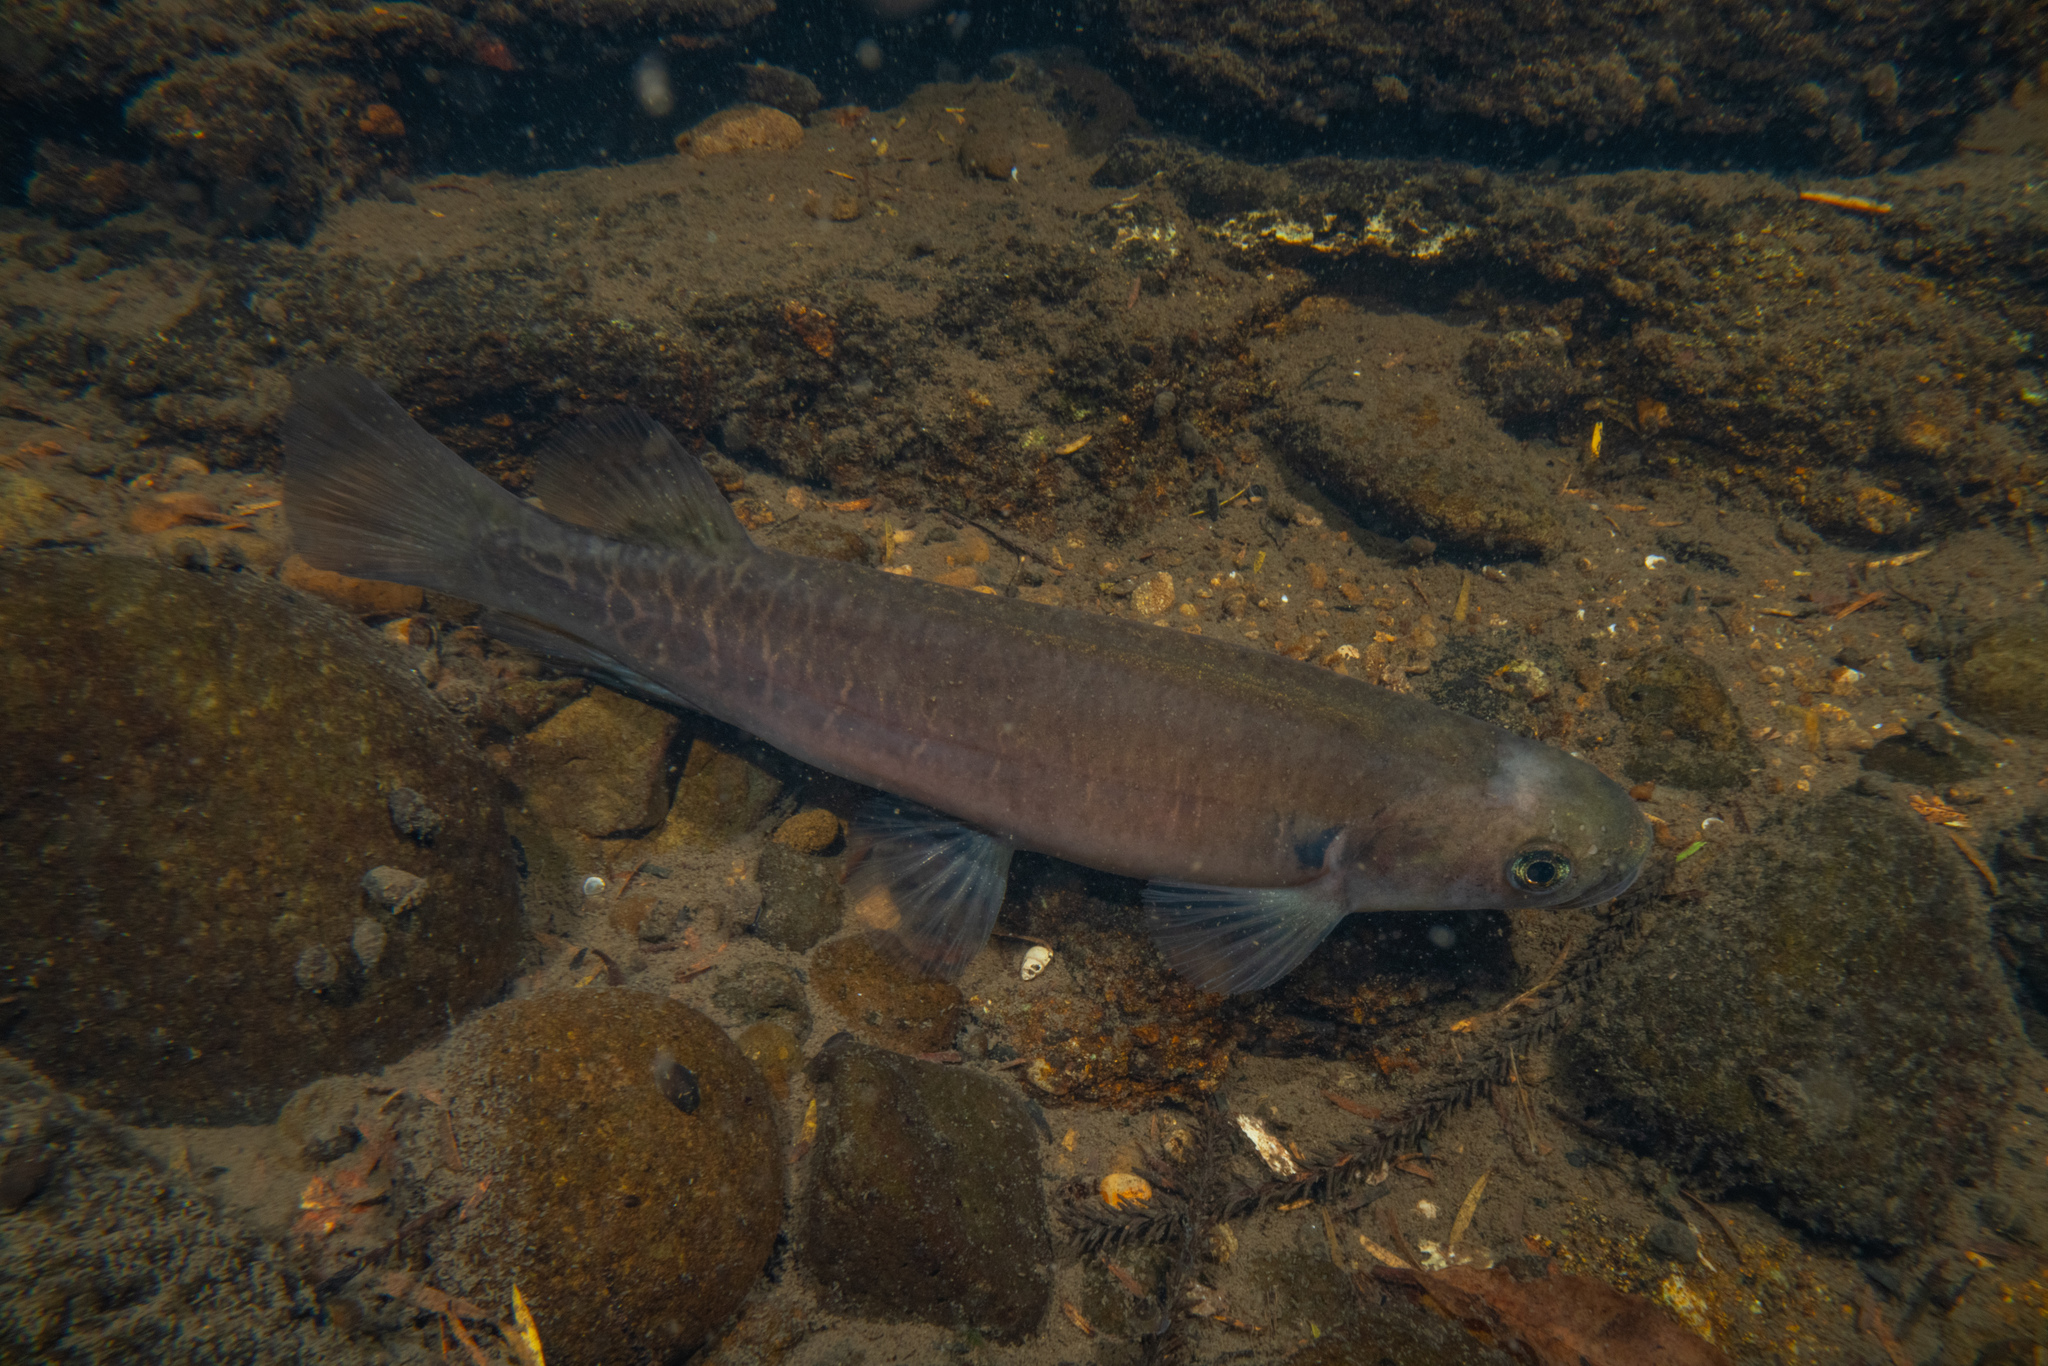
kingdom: Animalia
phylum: Chordata
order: Osmeriformes
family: Galaxiidae
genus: Galaxias
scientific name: Galaxias fasciatus
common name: Banded kokopu
